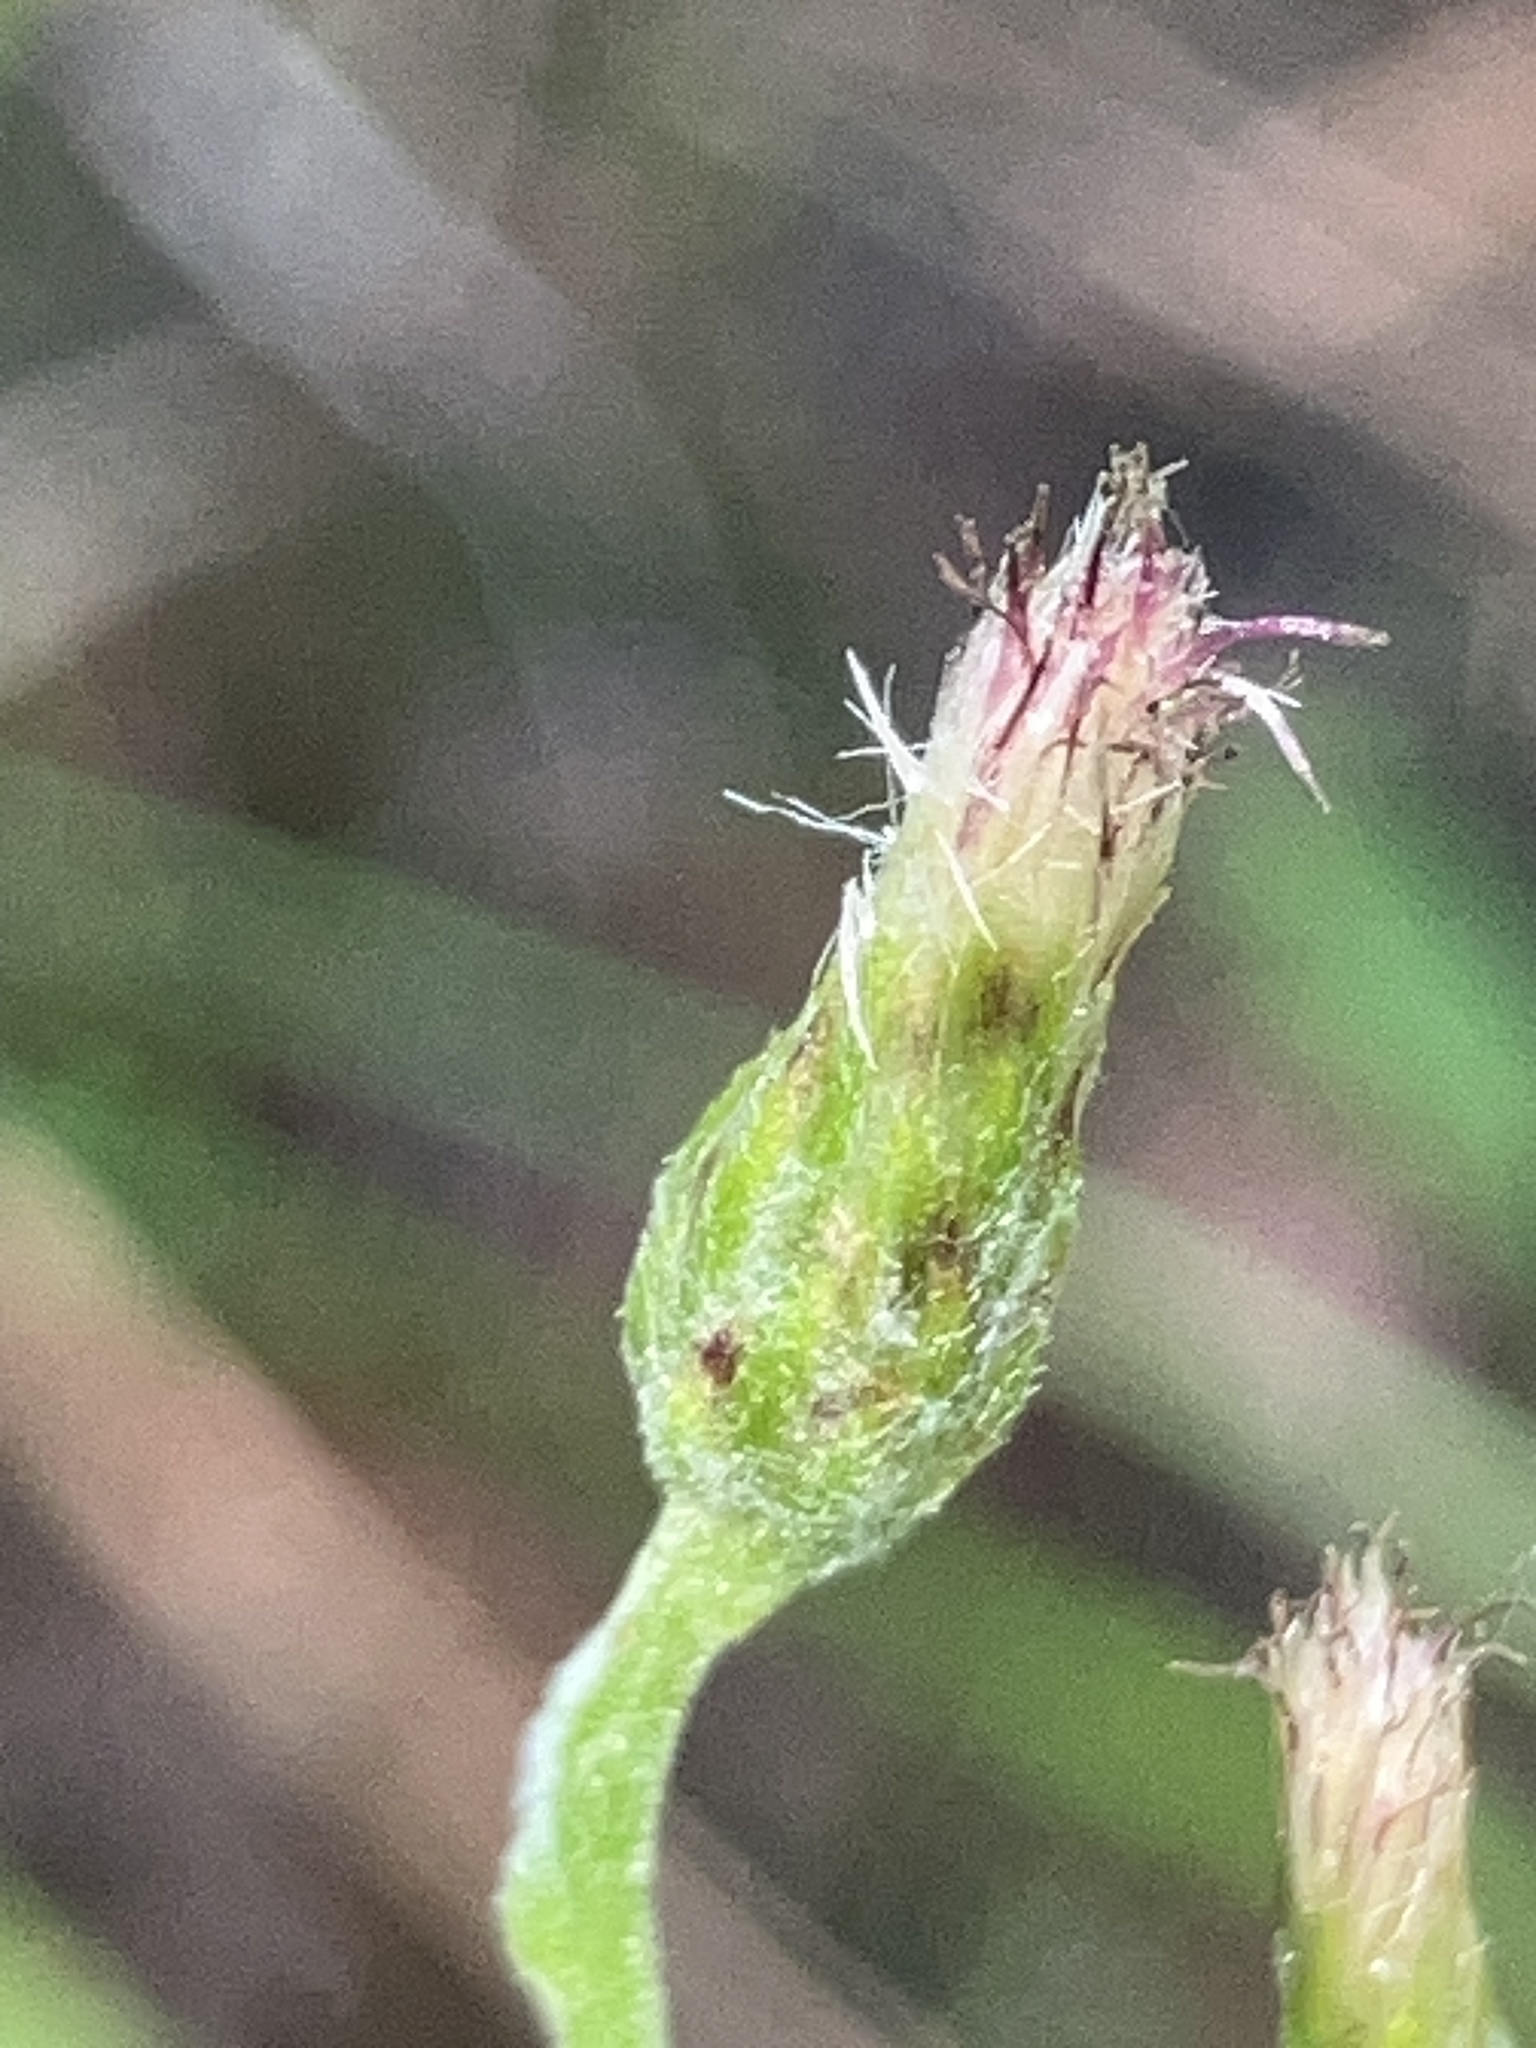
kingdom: Plantae
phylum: Tracheophyta
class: Magnoliopsida
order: Asterales
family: Asteraceae
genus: Antennaria
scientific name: Antennaria racemosa
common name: Racemose pussytoes
